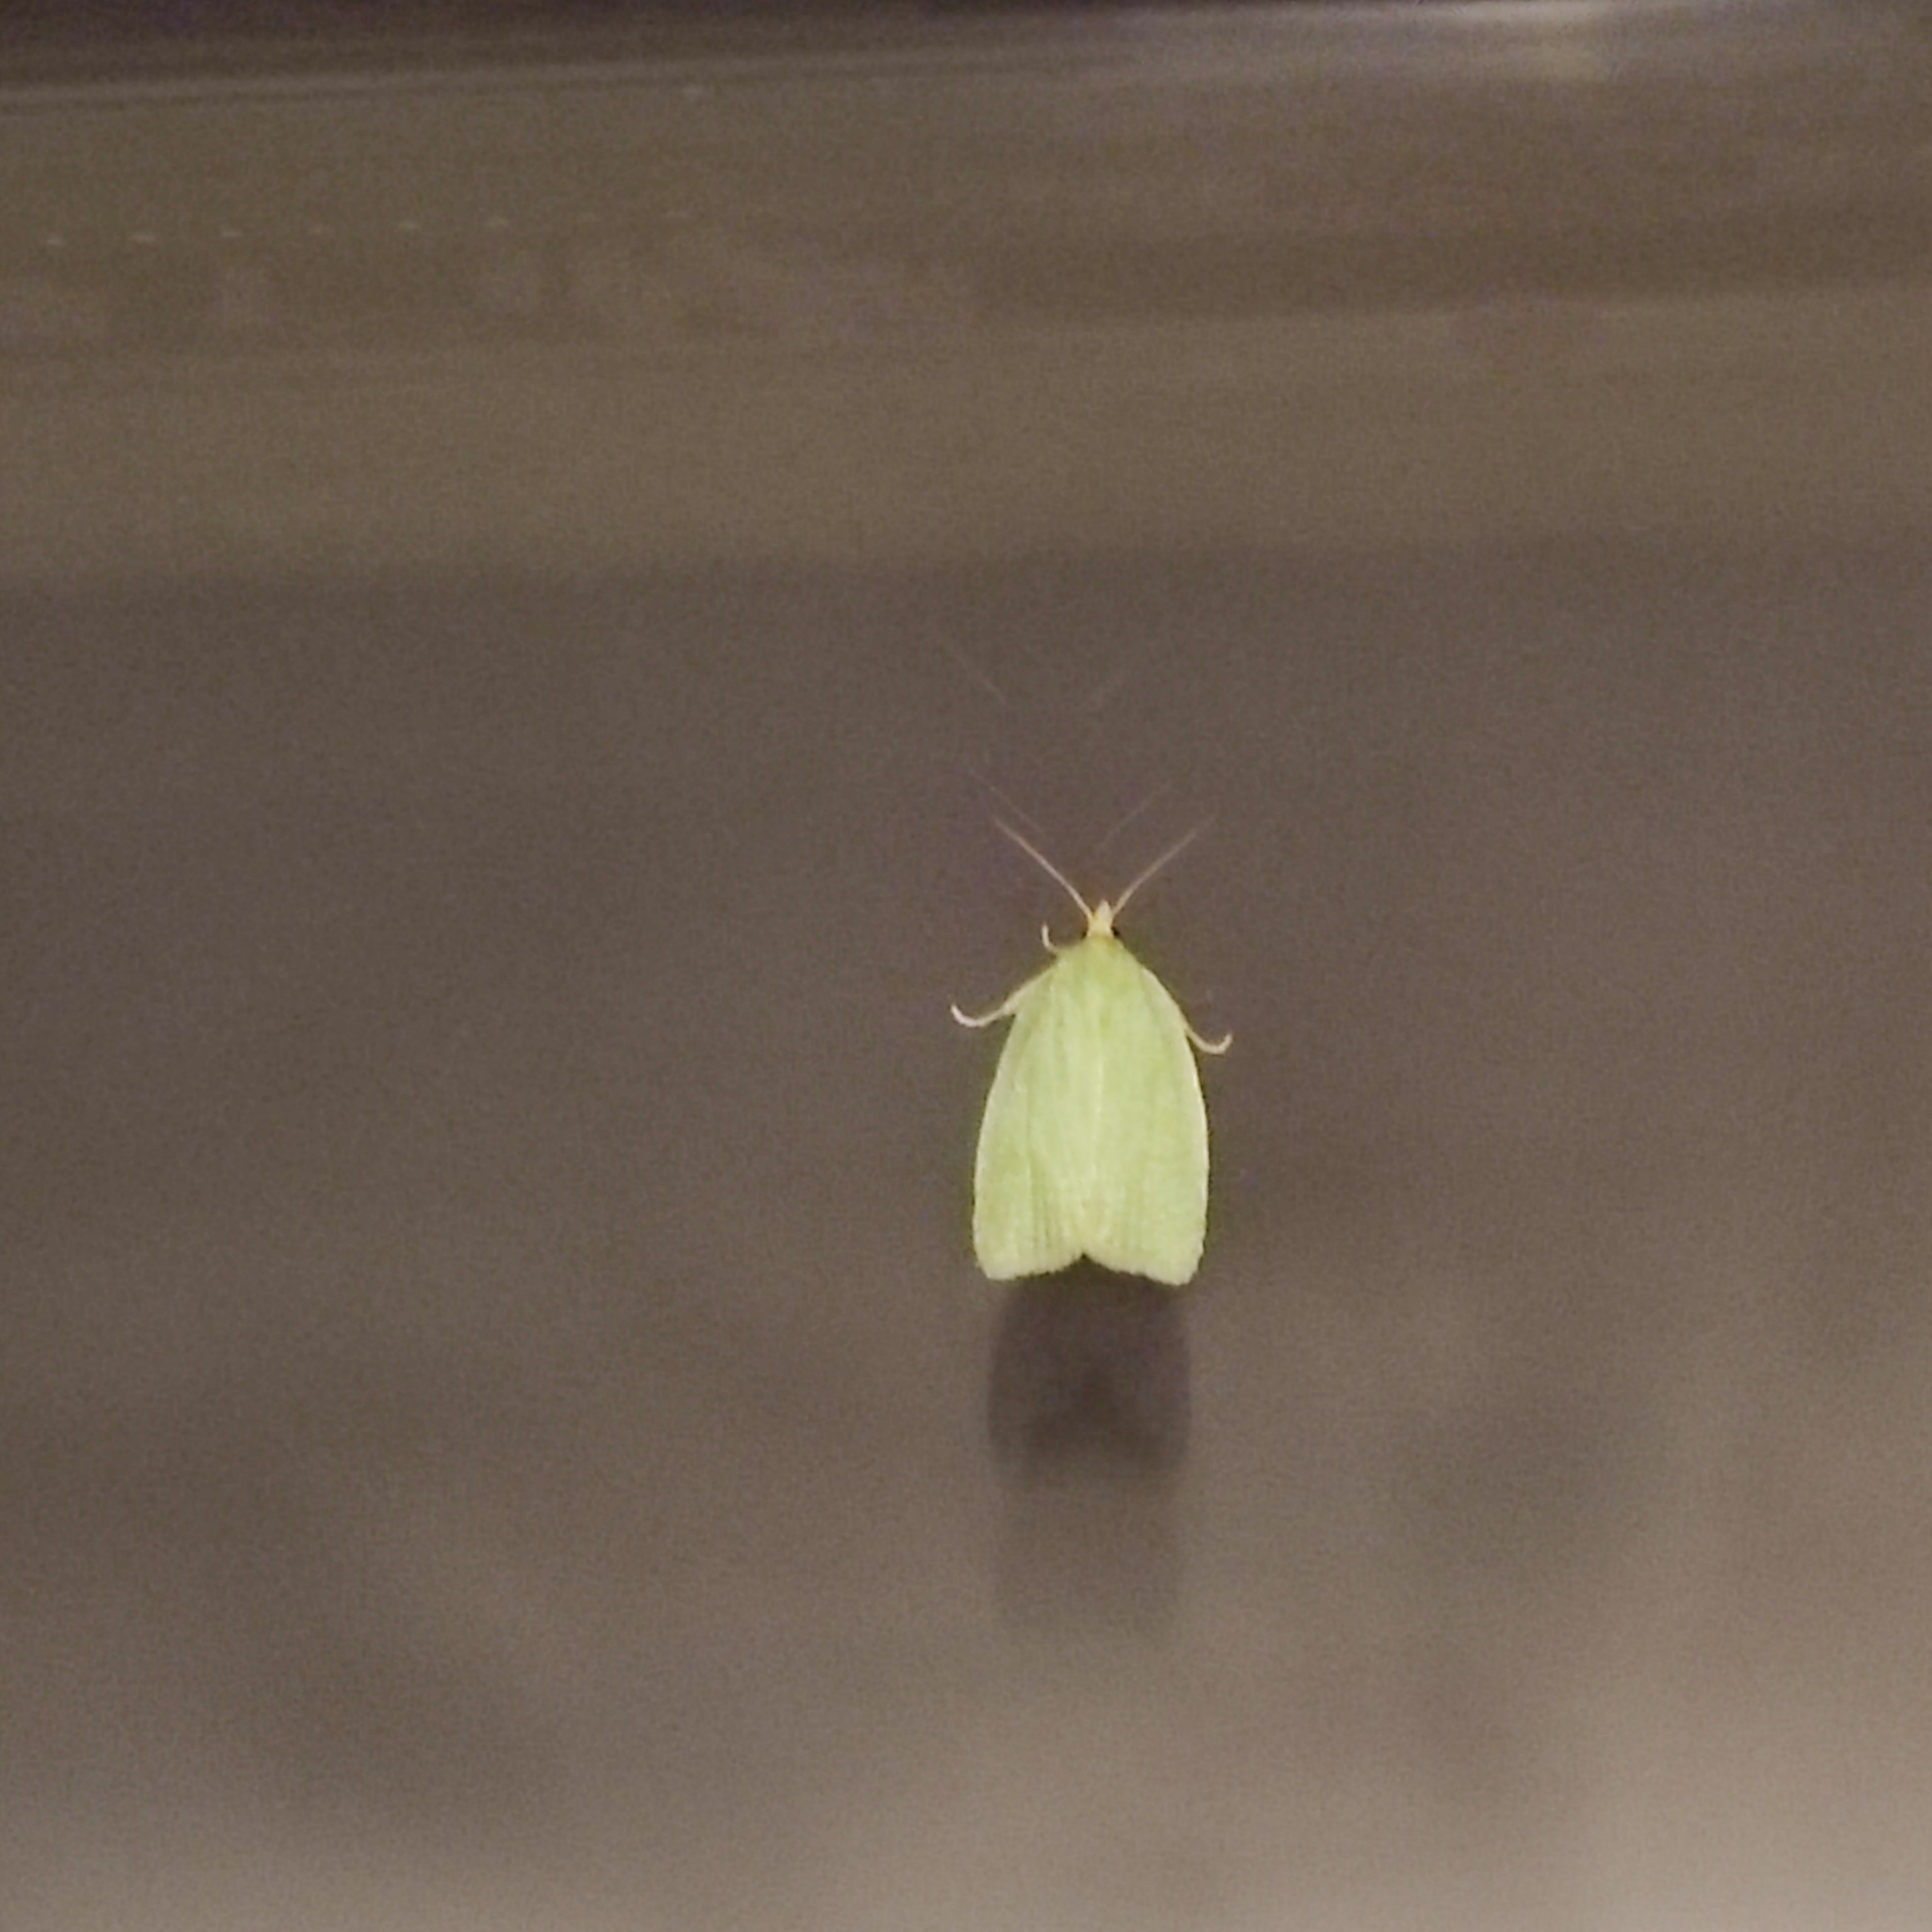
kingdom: Animalia
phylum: Arthropoda
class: Insecta
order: Lepidoptera
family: Tortricidae
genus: Tortrix
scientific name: Tortrix viridana
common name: Green oak tortrix
